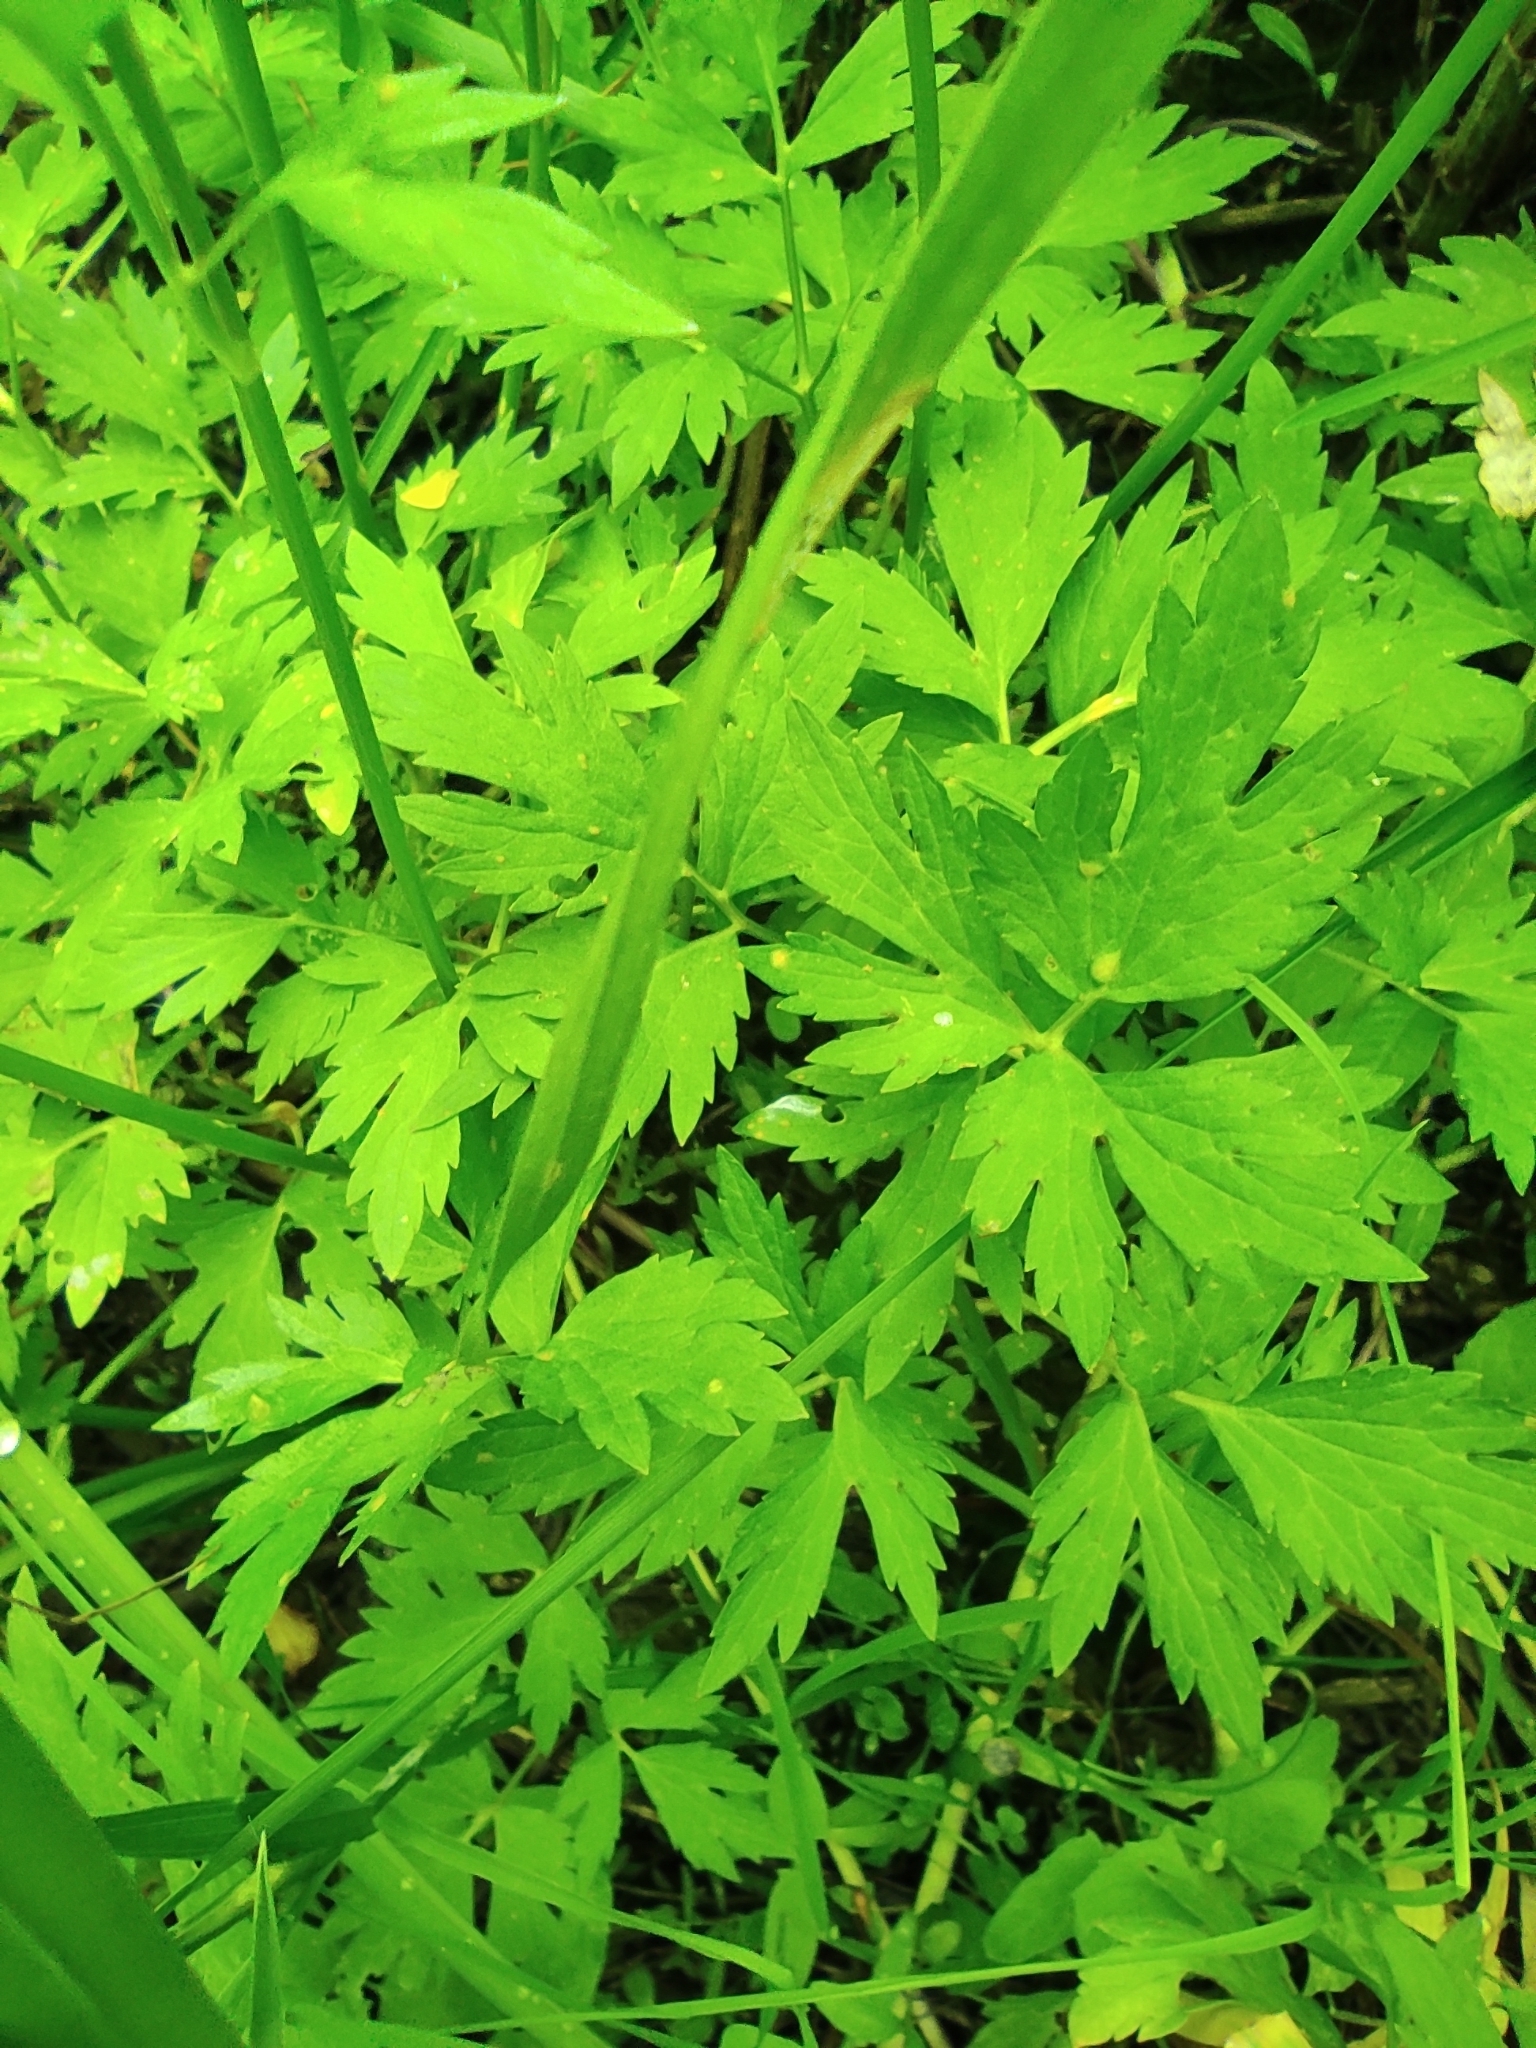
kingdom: Plantae
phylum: Tracheophyta
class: Magnoliopsida
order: Ranunculales
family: Ranunculaceae
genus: Ranunculus
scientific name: Ranunculus repens
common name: Creeping buttercup
